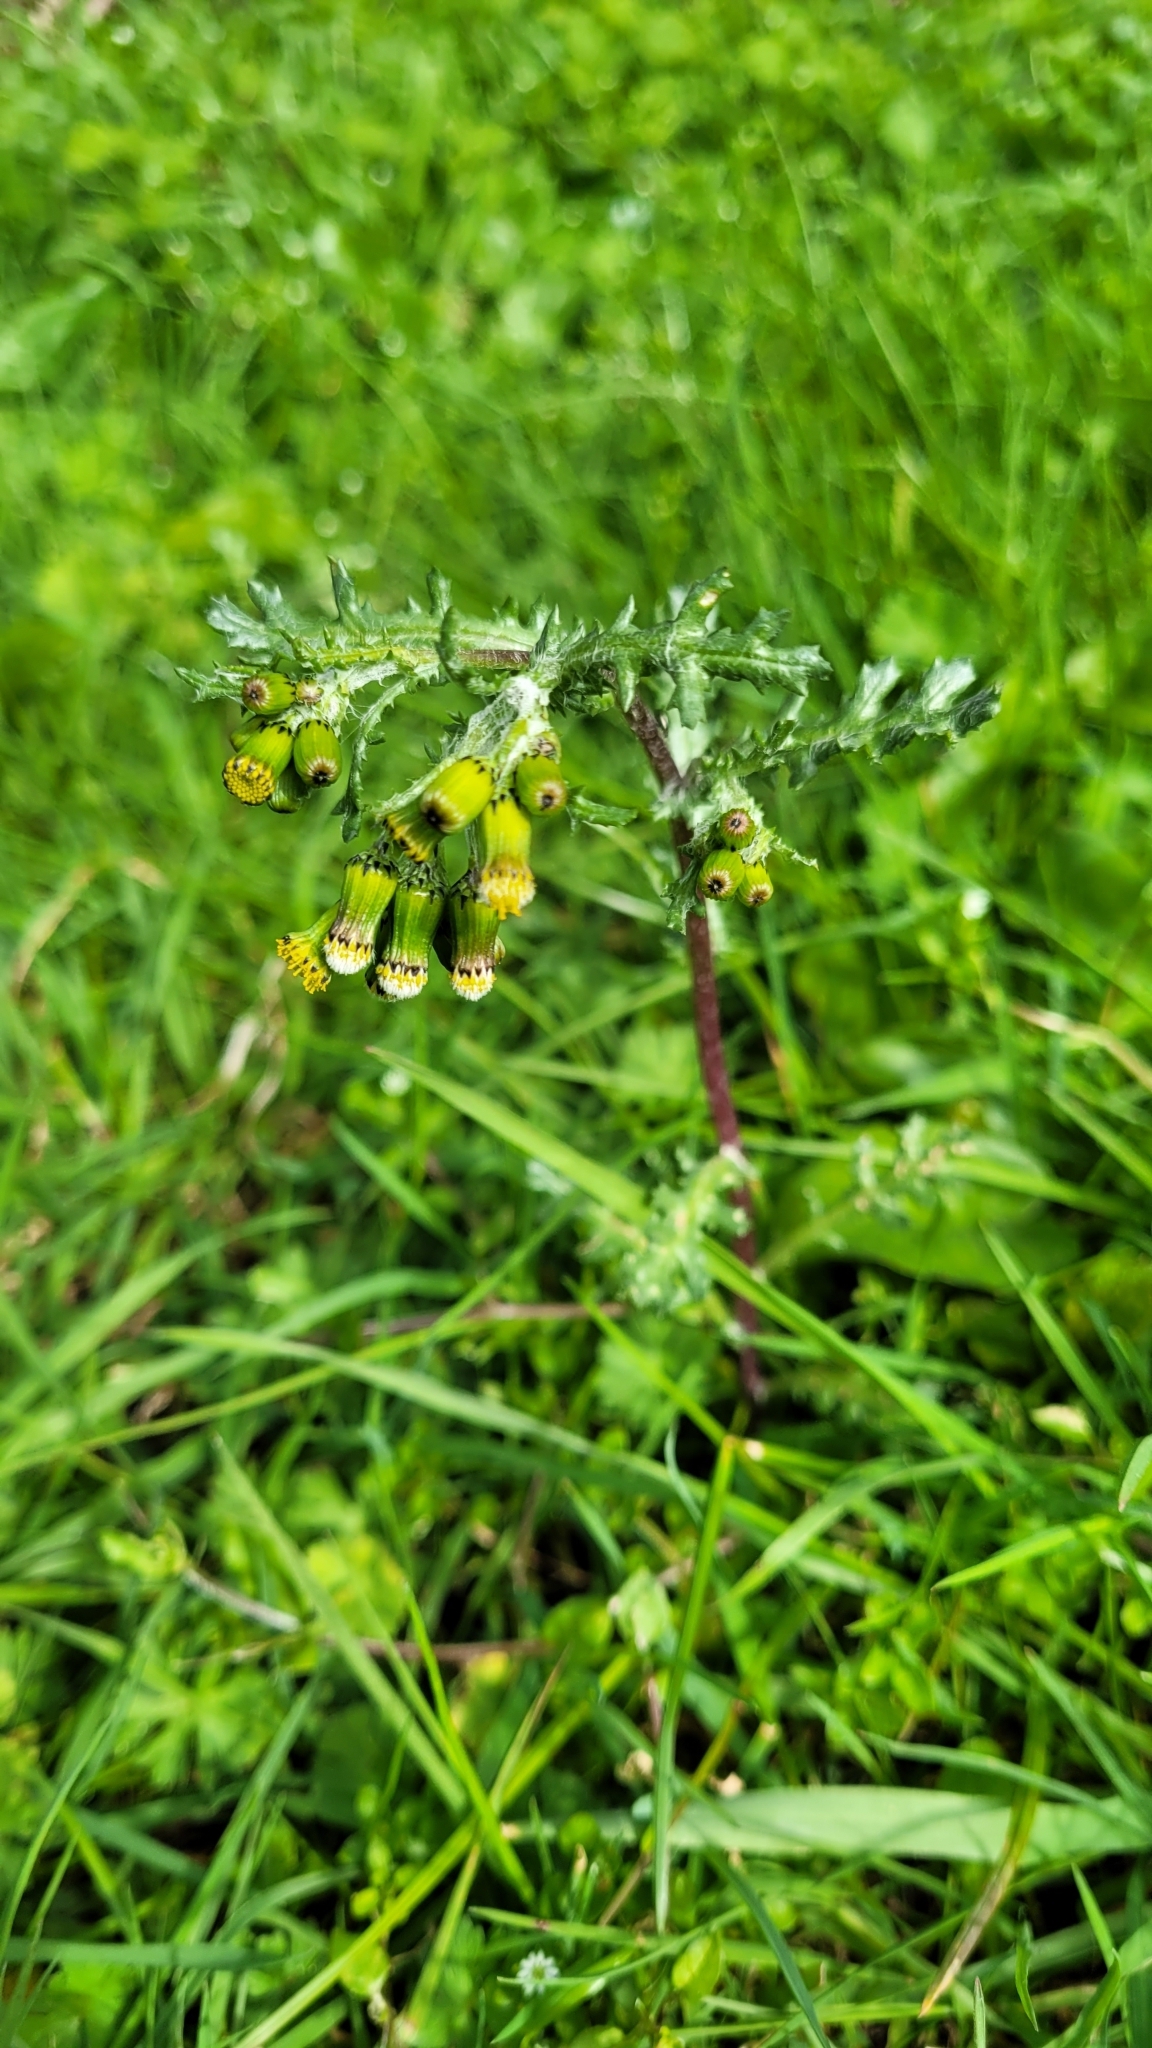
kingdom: Plantae
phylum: Tracheophyta
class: Magnoliopsida
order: Asterales
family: Asteraceae
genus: Senecio
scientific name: Senecio vulgaris
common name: Old-man-in-the-spring
